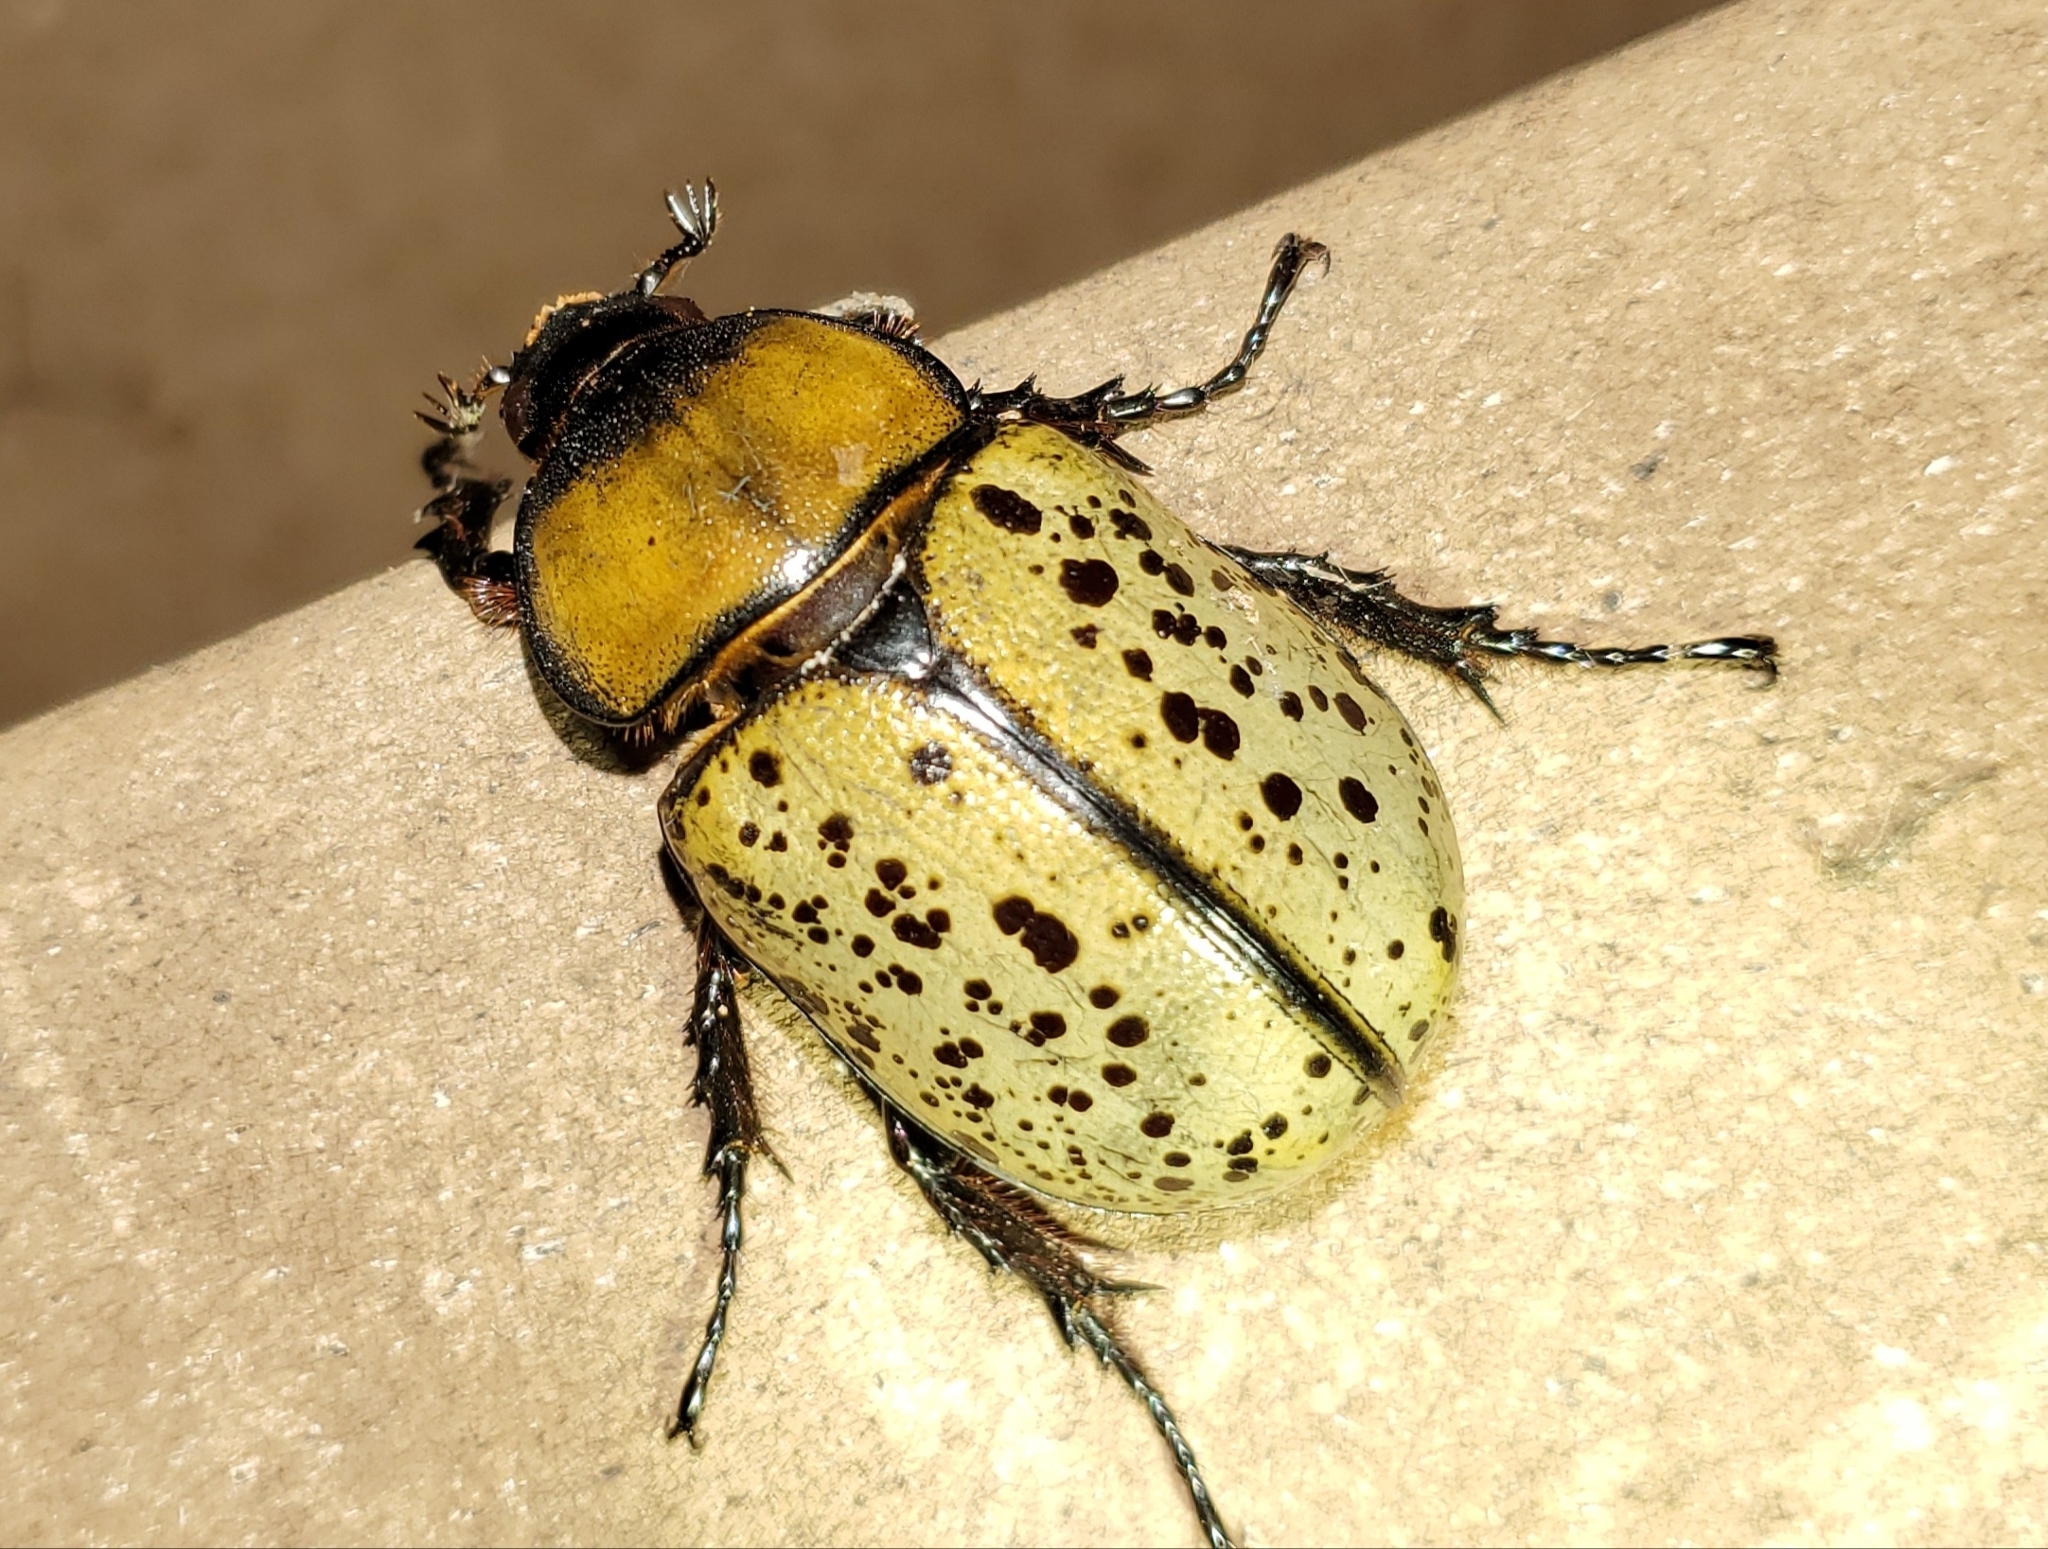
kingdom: Animalia
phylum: Arthropoda
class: Insecta
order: Coleoptera
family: Scarabaeidae
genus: Dynastes
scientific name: Dynastes tityus
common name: Eastern hercules beetle
